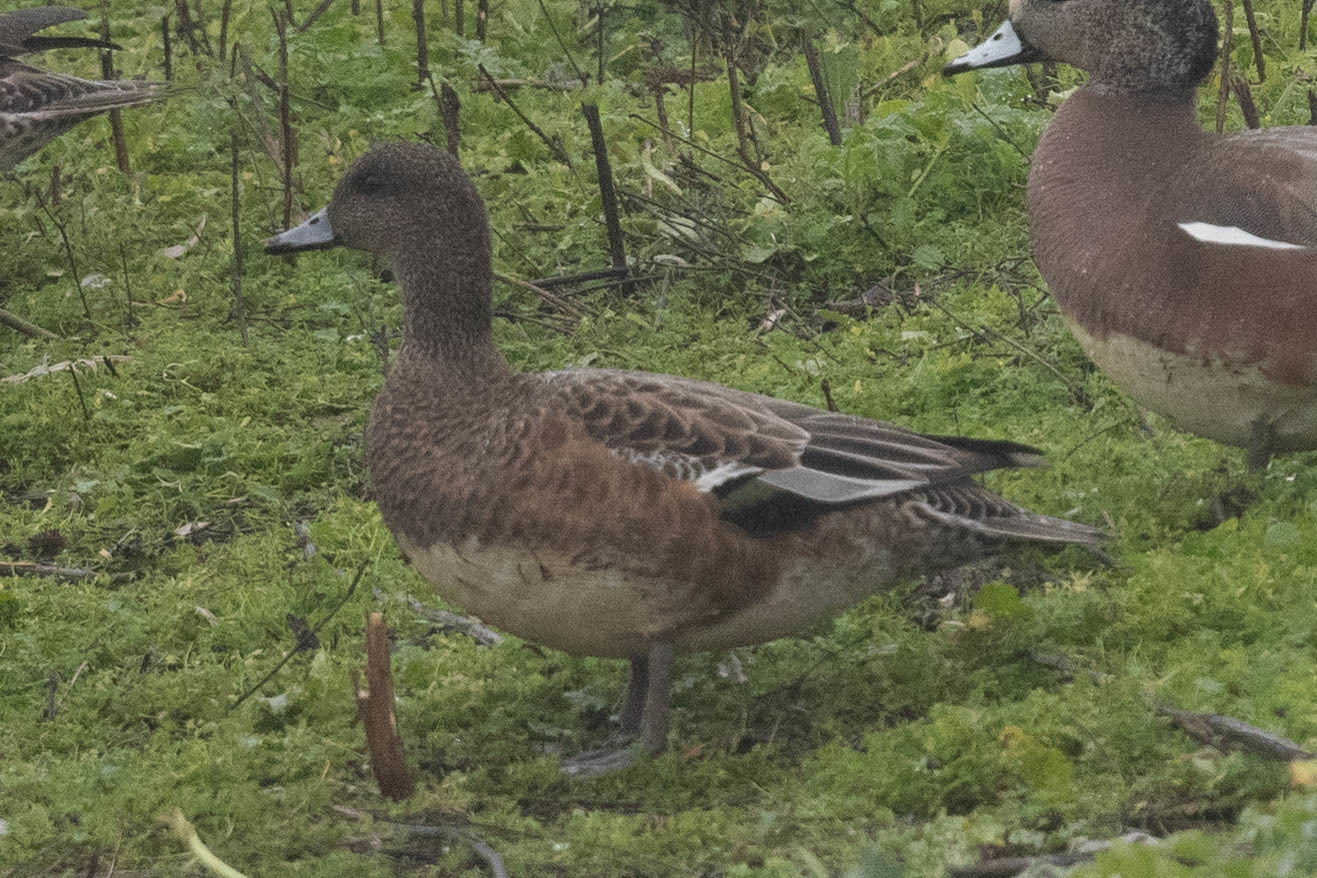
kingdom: Animalia
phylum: Chordata
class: Aves
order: Anseriformes
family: Anatidae
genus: Mareca
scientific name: Mareca americana
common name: American wigeon
